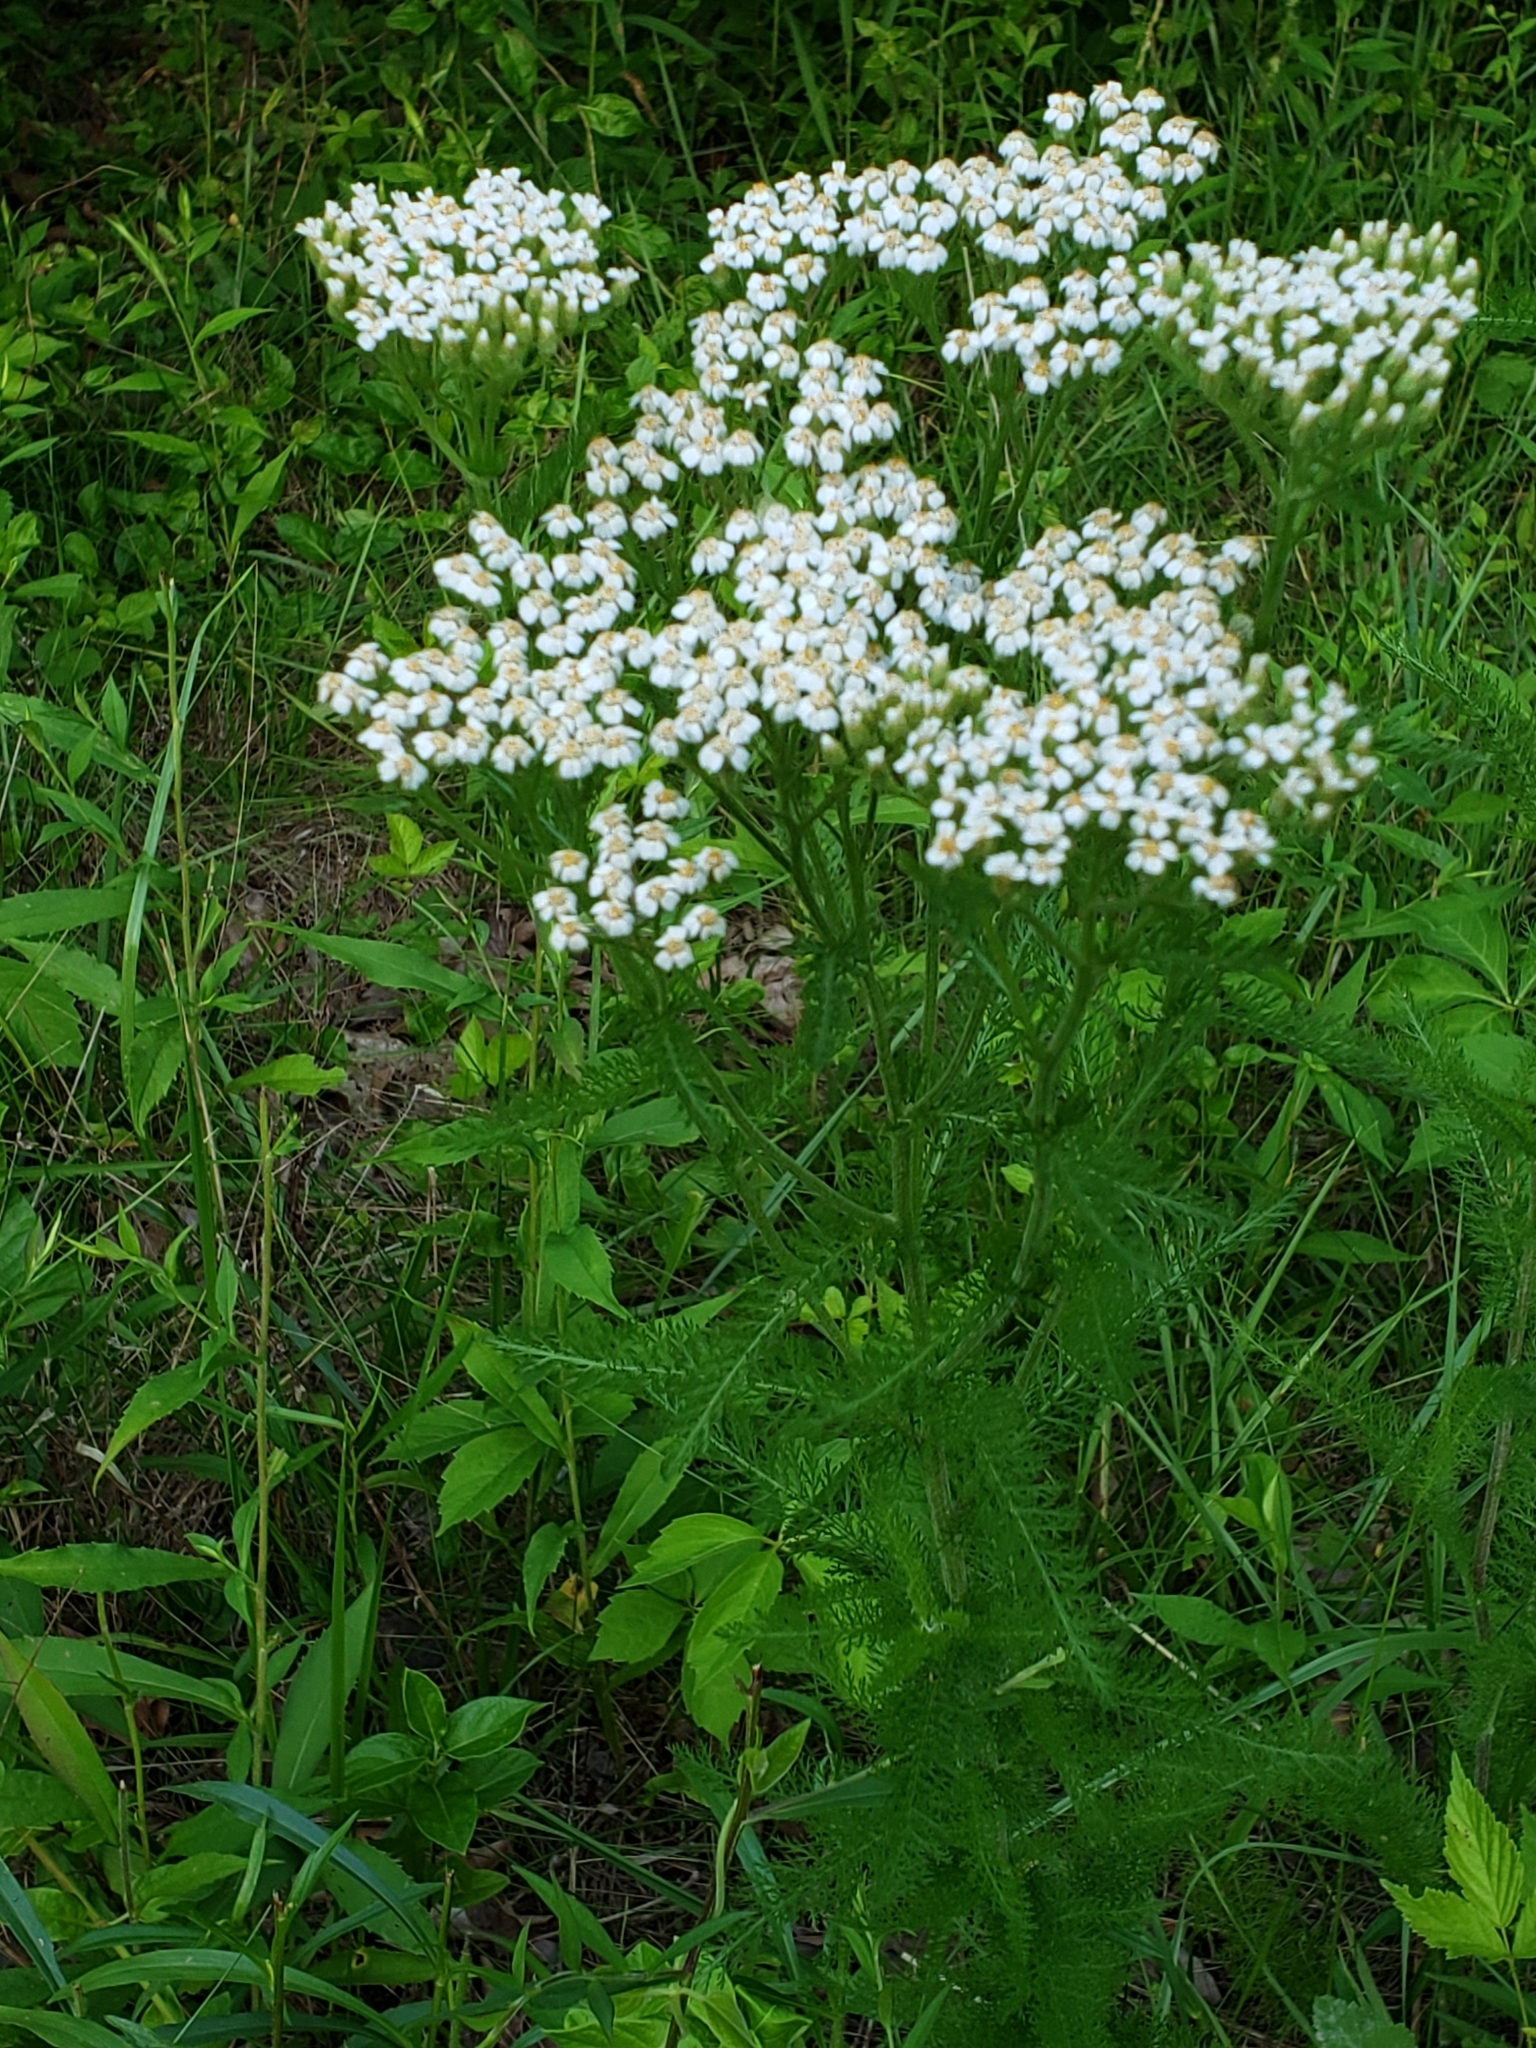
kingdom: Plantae
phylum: Tracheophyta
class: Magnoliopsida
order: Asterales
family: Asteraceae
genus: Achillea
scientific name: Achillea millefolium
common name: Yarrow
